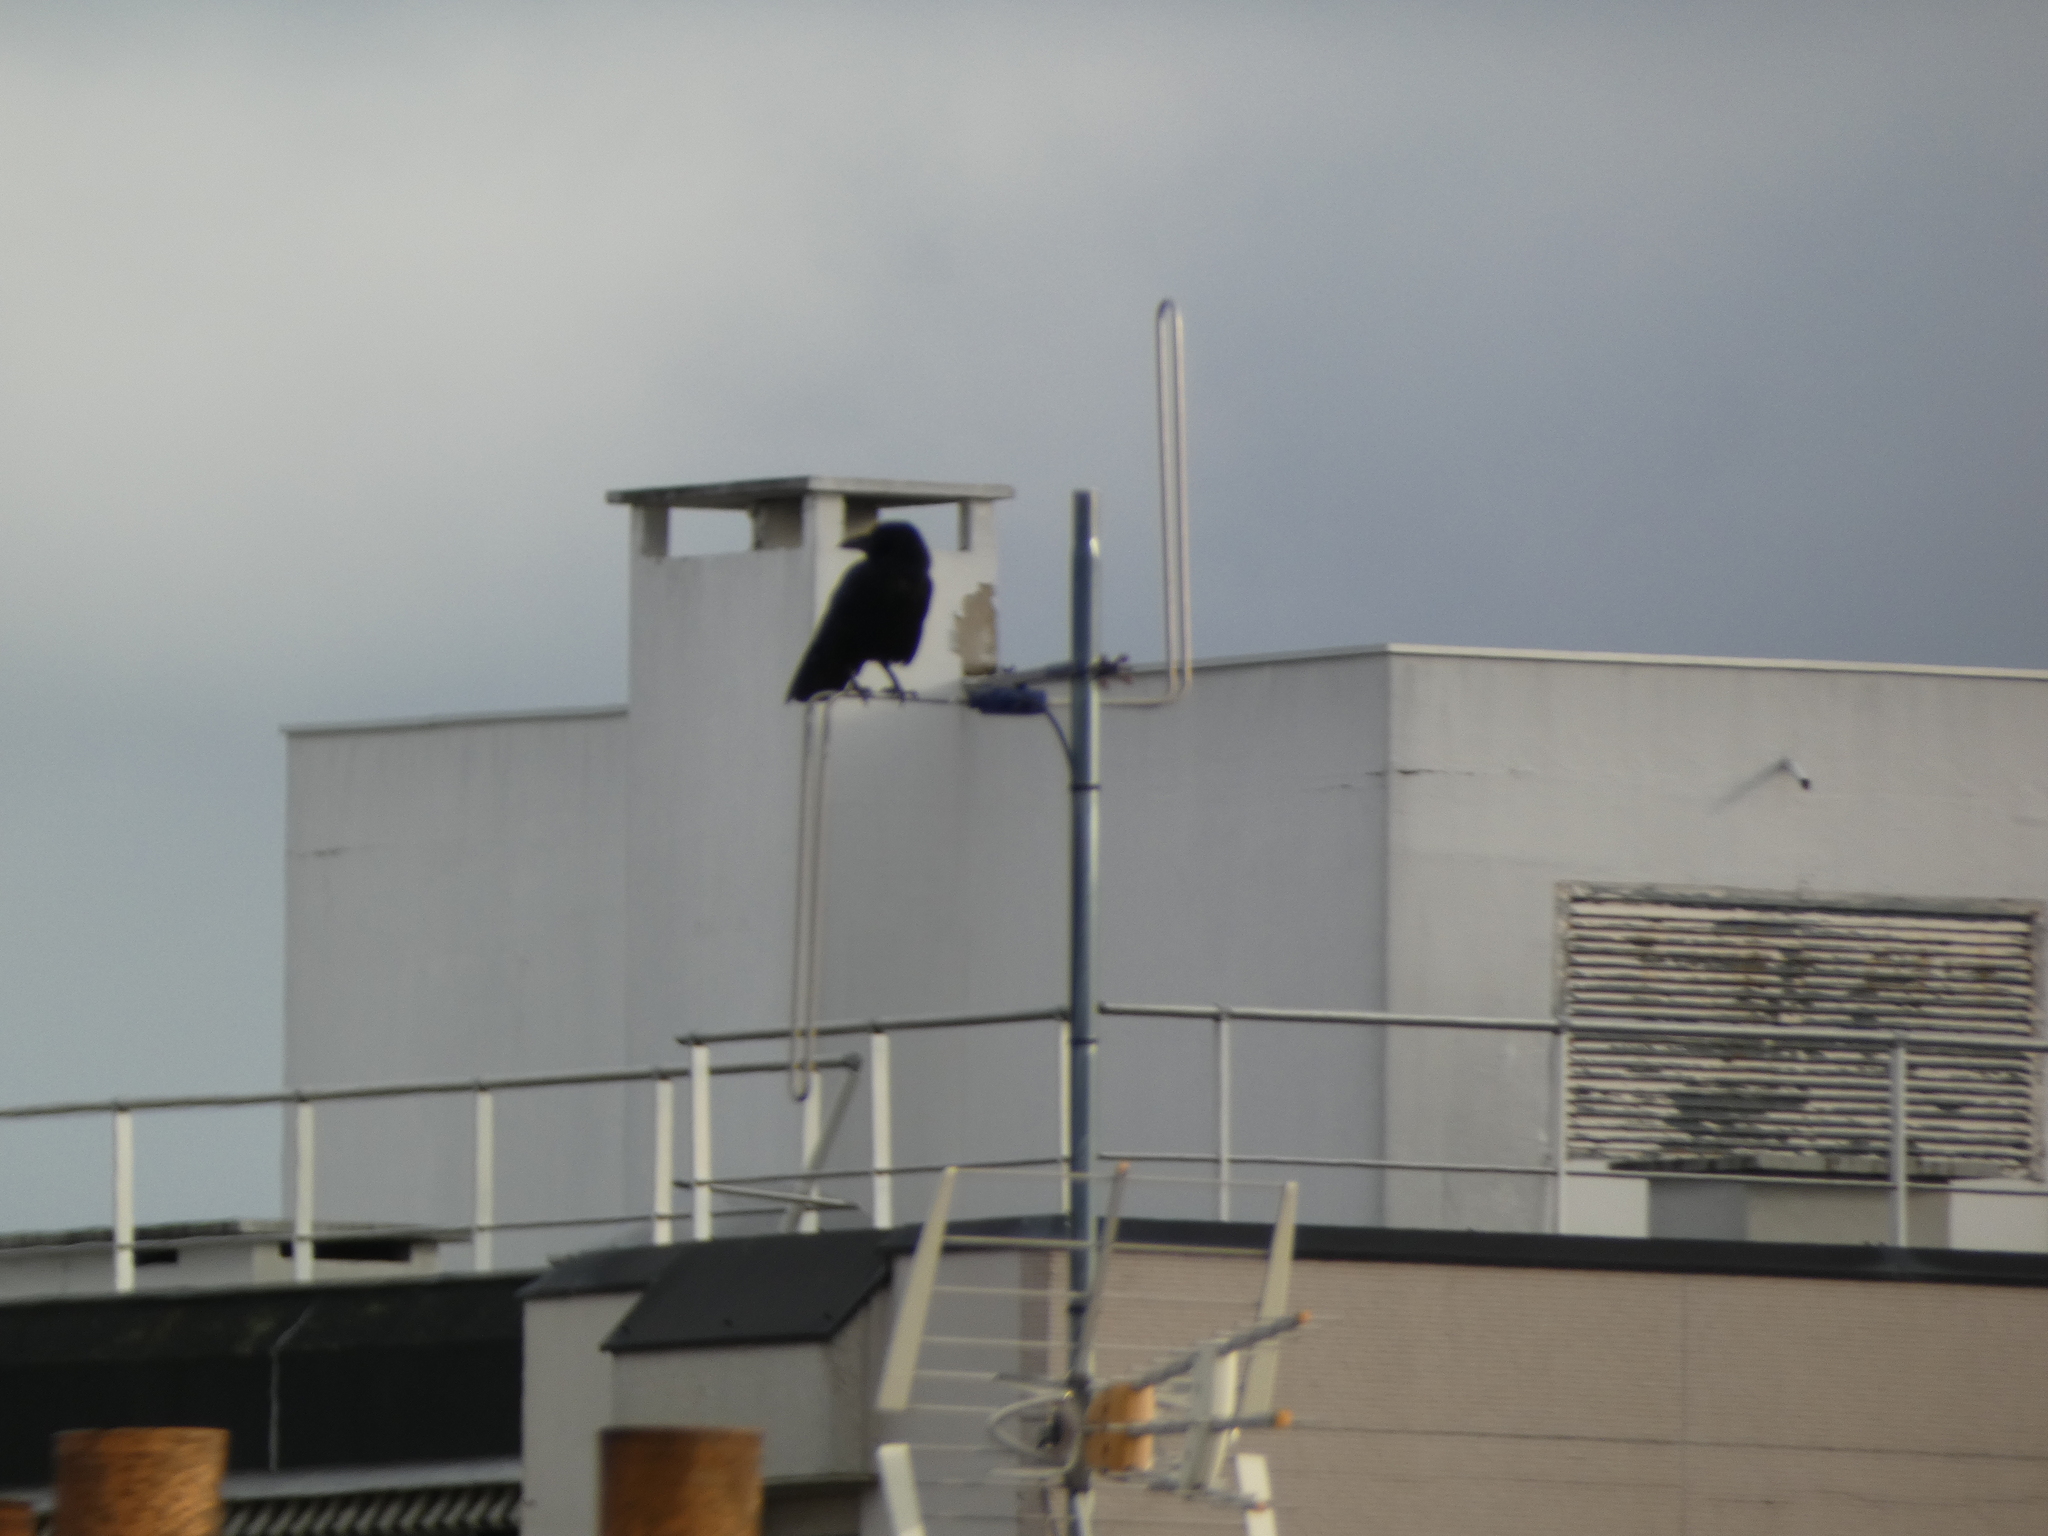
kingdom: Animalia
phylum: Chordata
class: Aves
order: Passeriformes
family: Corvidae
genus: Corvus
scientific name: Corvus corone
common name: Carrion crow
